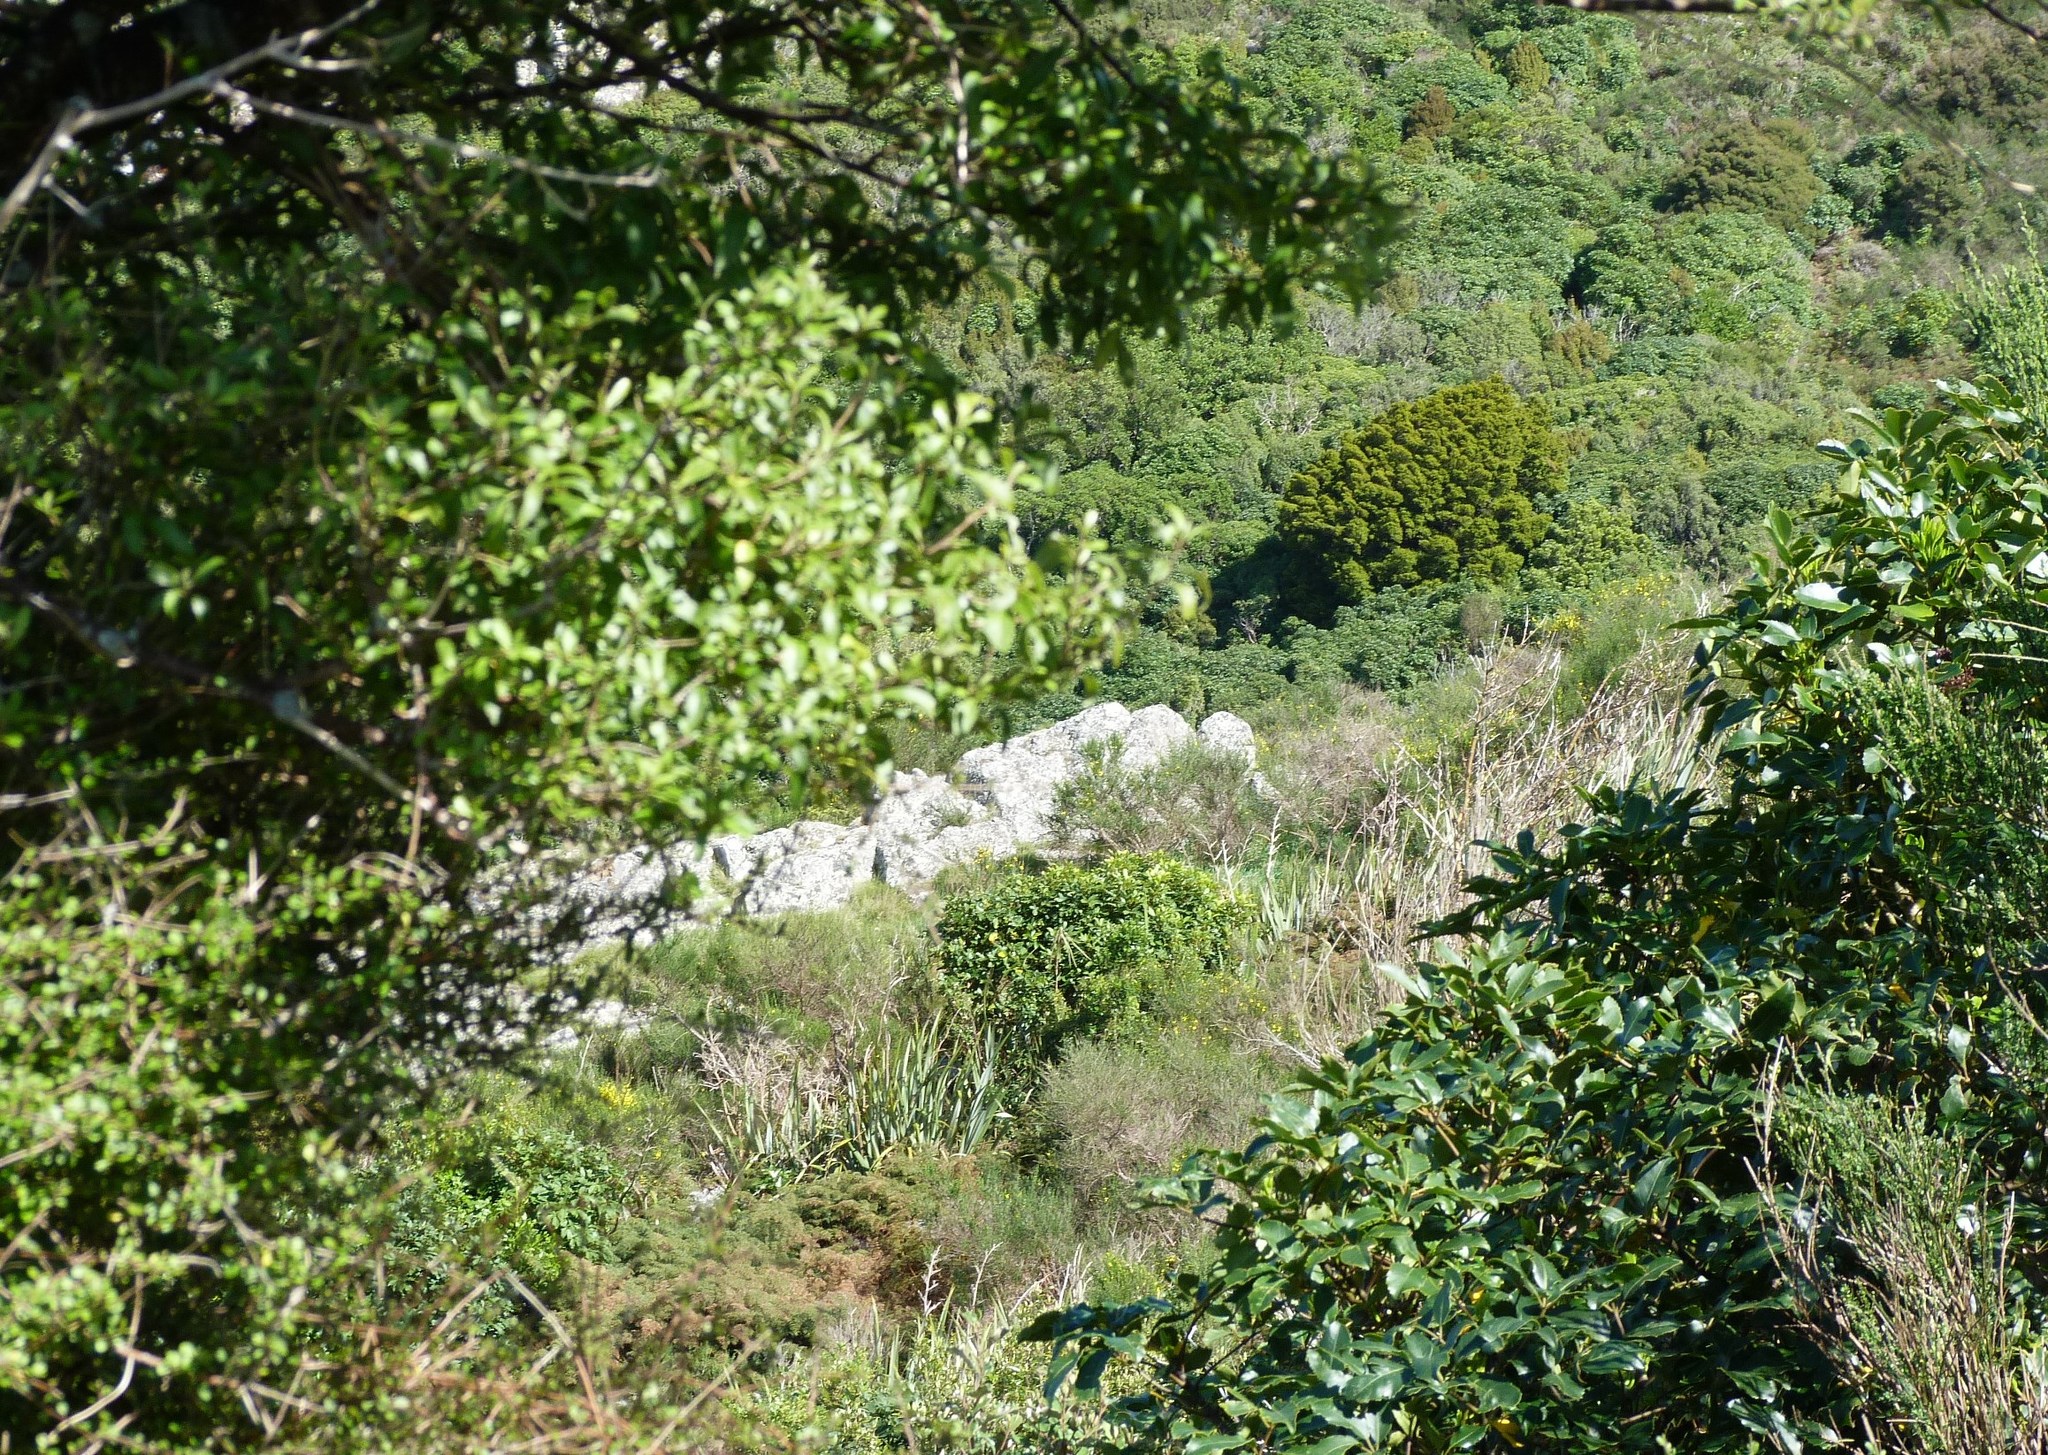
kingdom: Plantae
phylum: Tracheophyta
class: Pinopsida
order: Pinales
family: Podocarpaceae
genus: Podocarpus
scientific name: Podocarpus laetus
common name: Hall's totara
